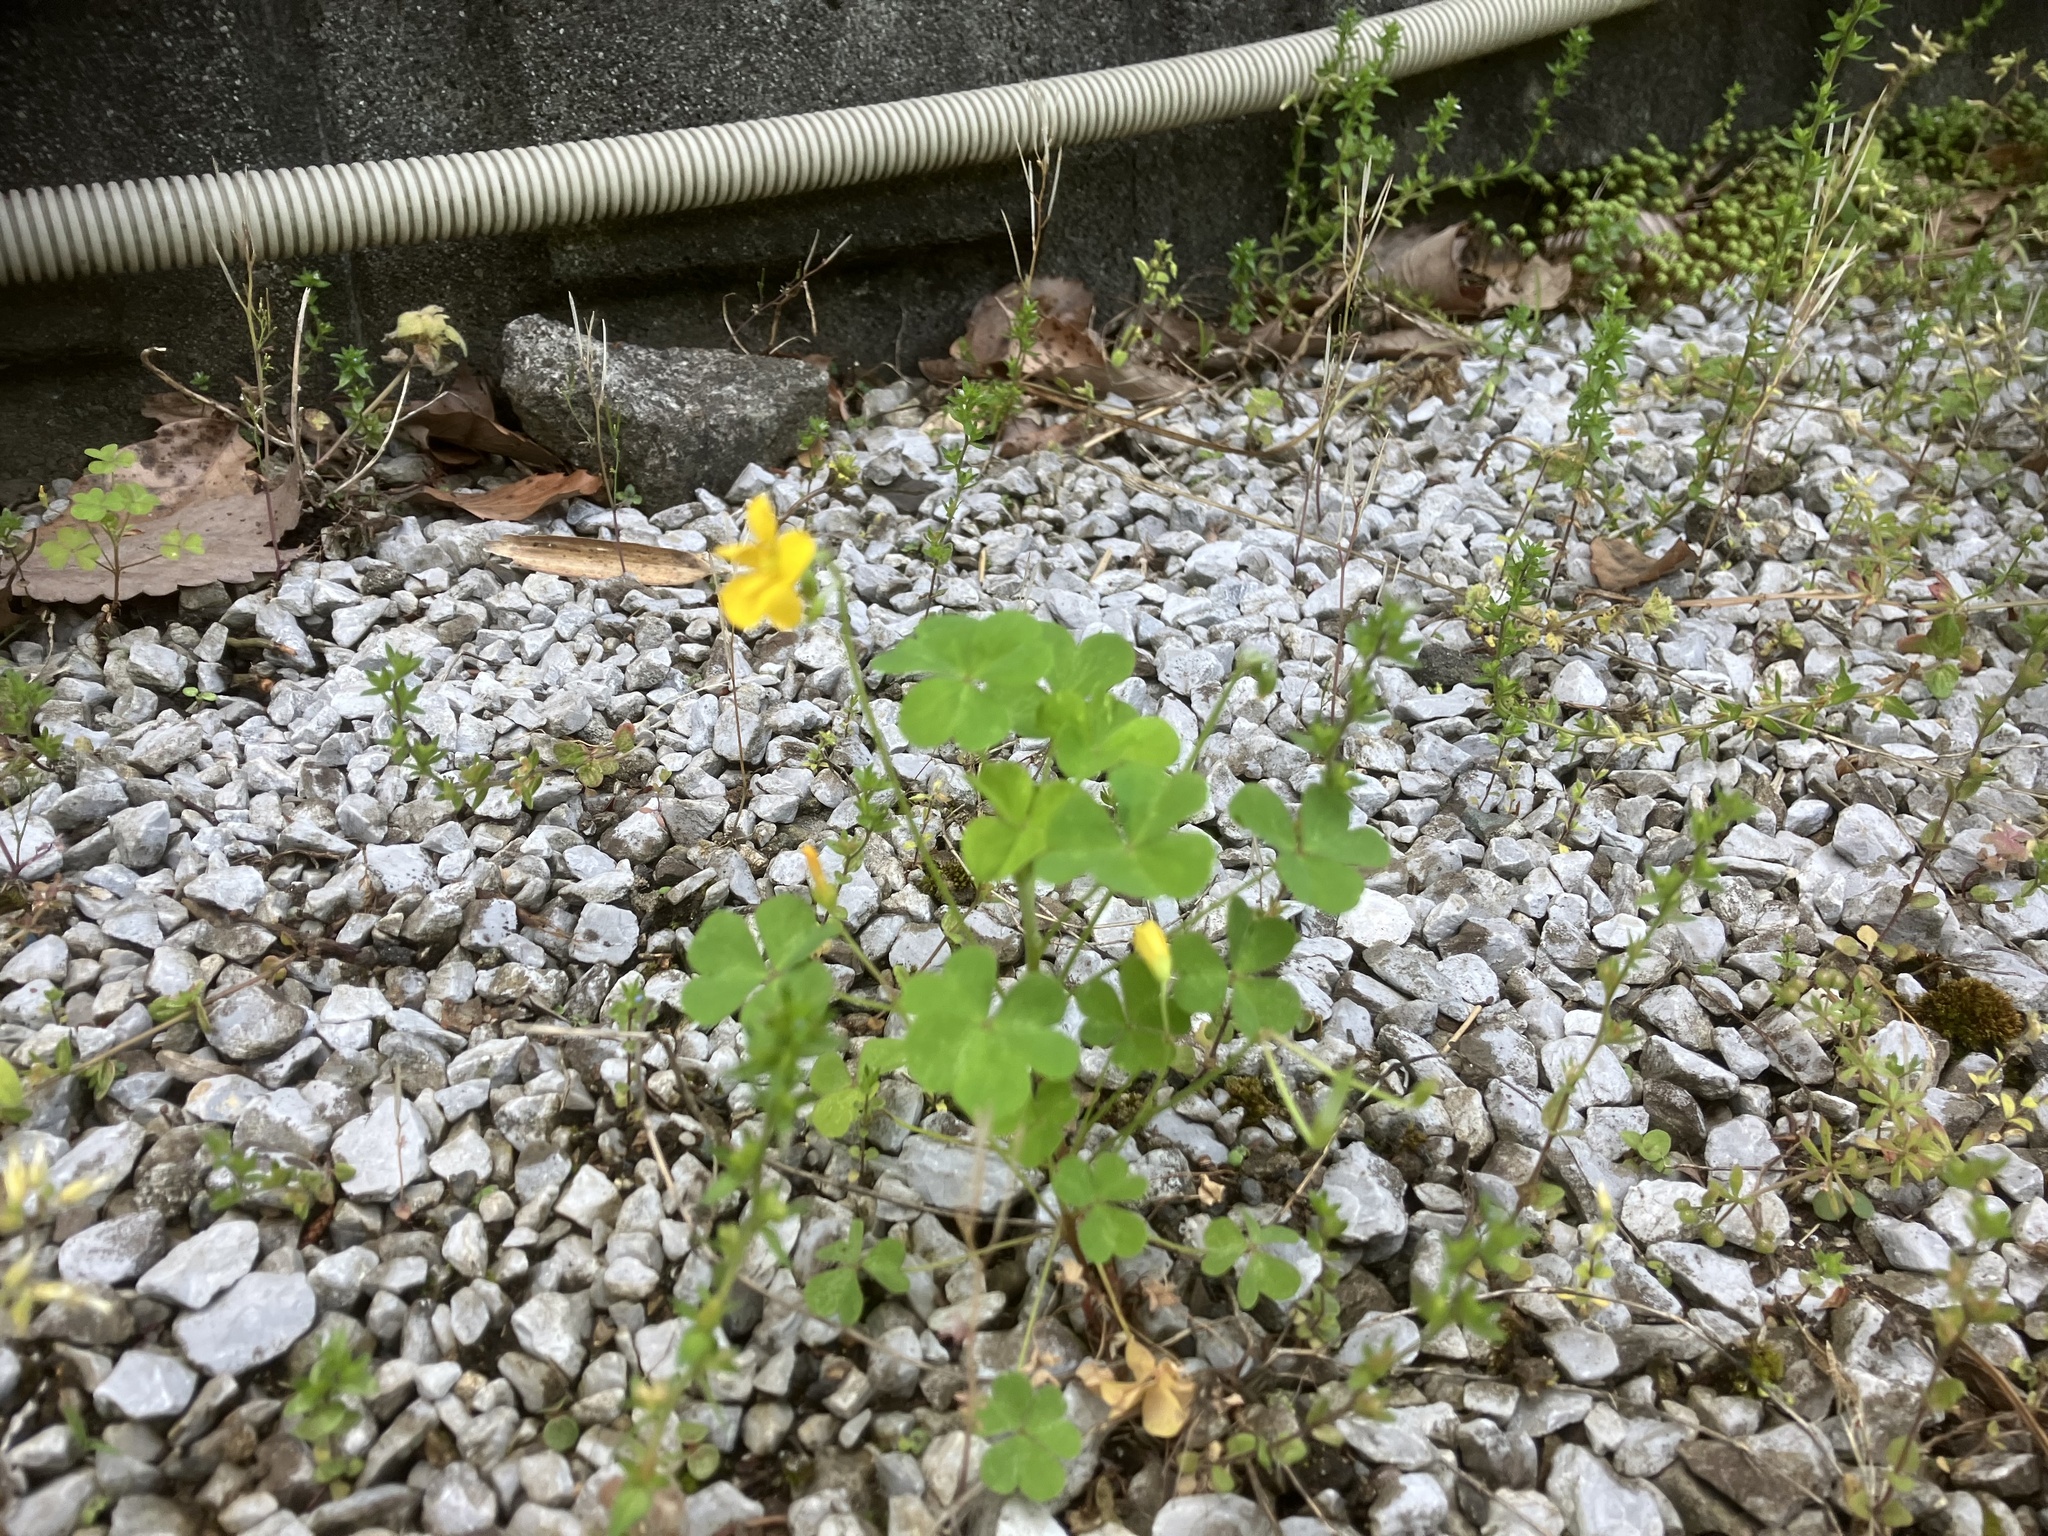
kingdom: Plantae
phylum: Tracheophyta
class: Magnoliopsida
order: Oxalidales
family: Oxalidaceae
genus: Oxalis
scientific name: Oxalis dillenii
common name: Sussex yellow-sorrel
